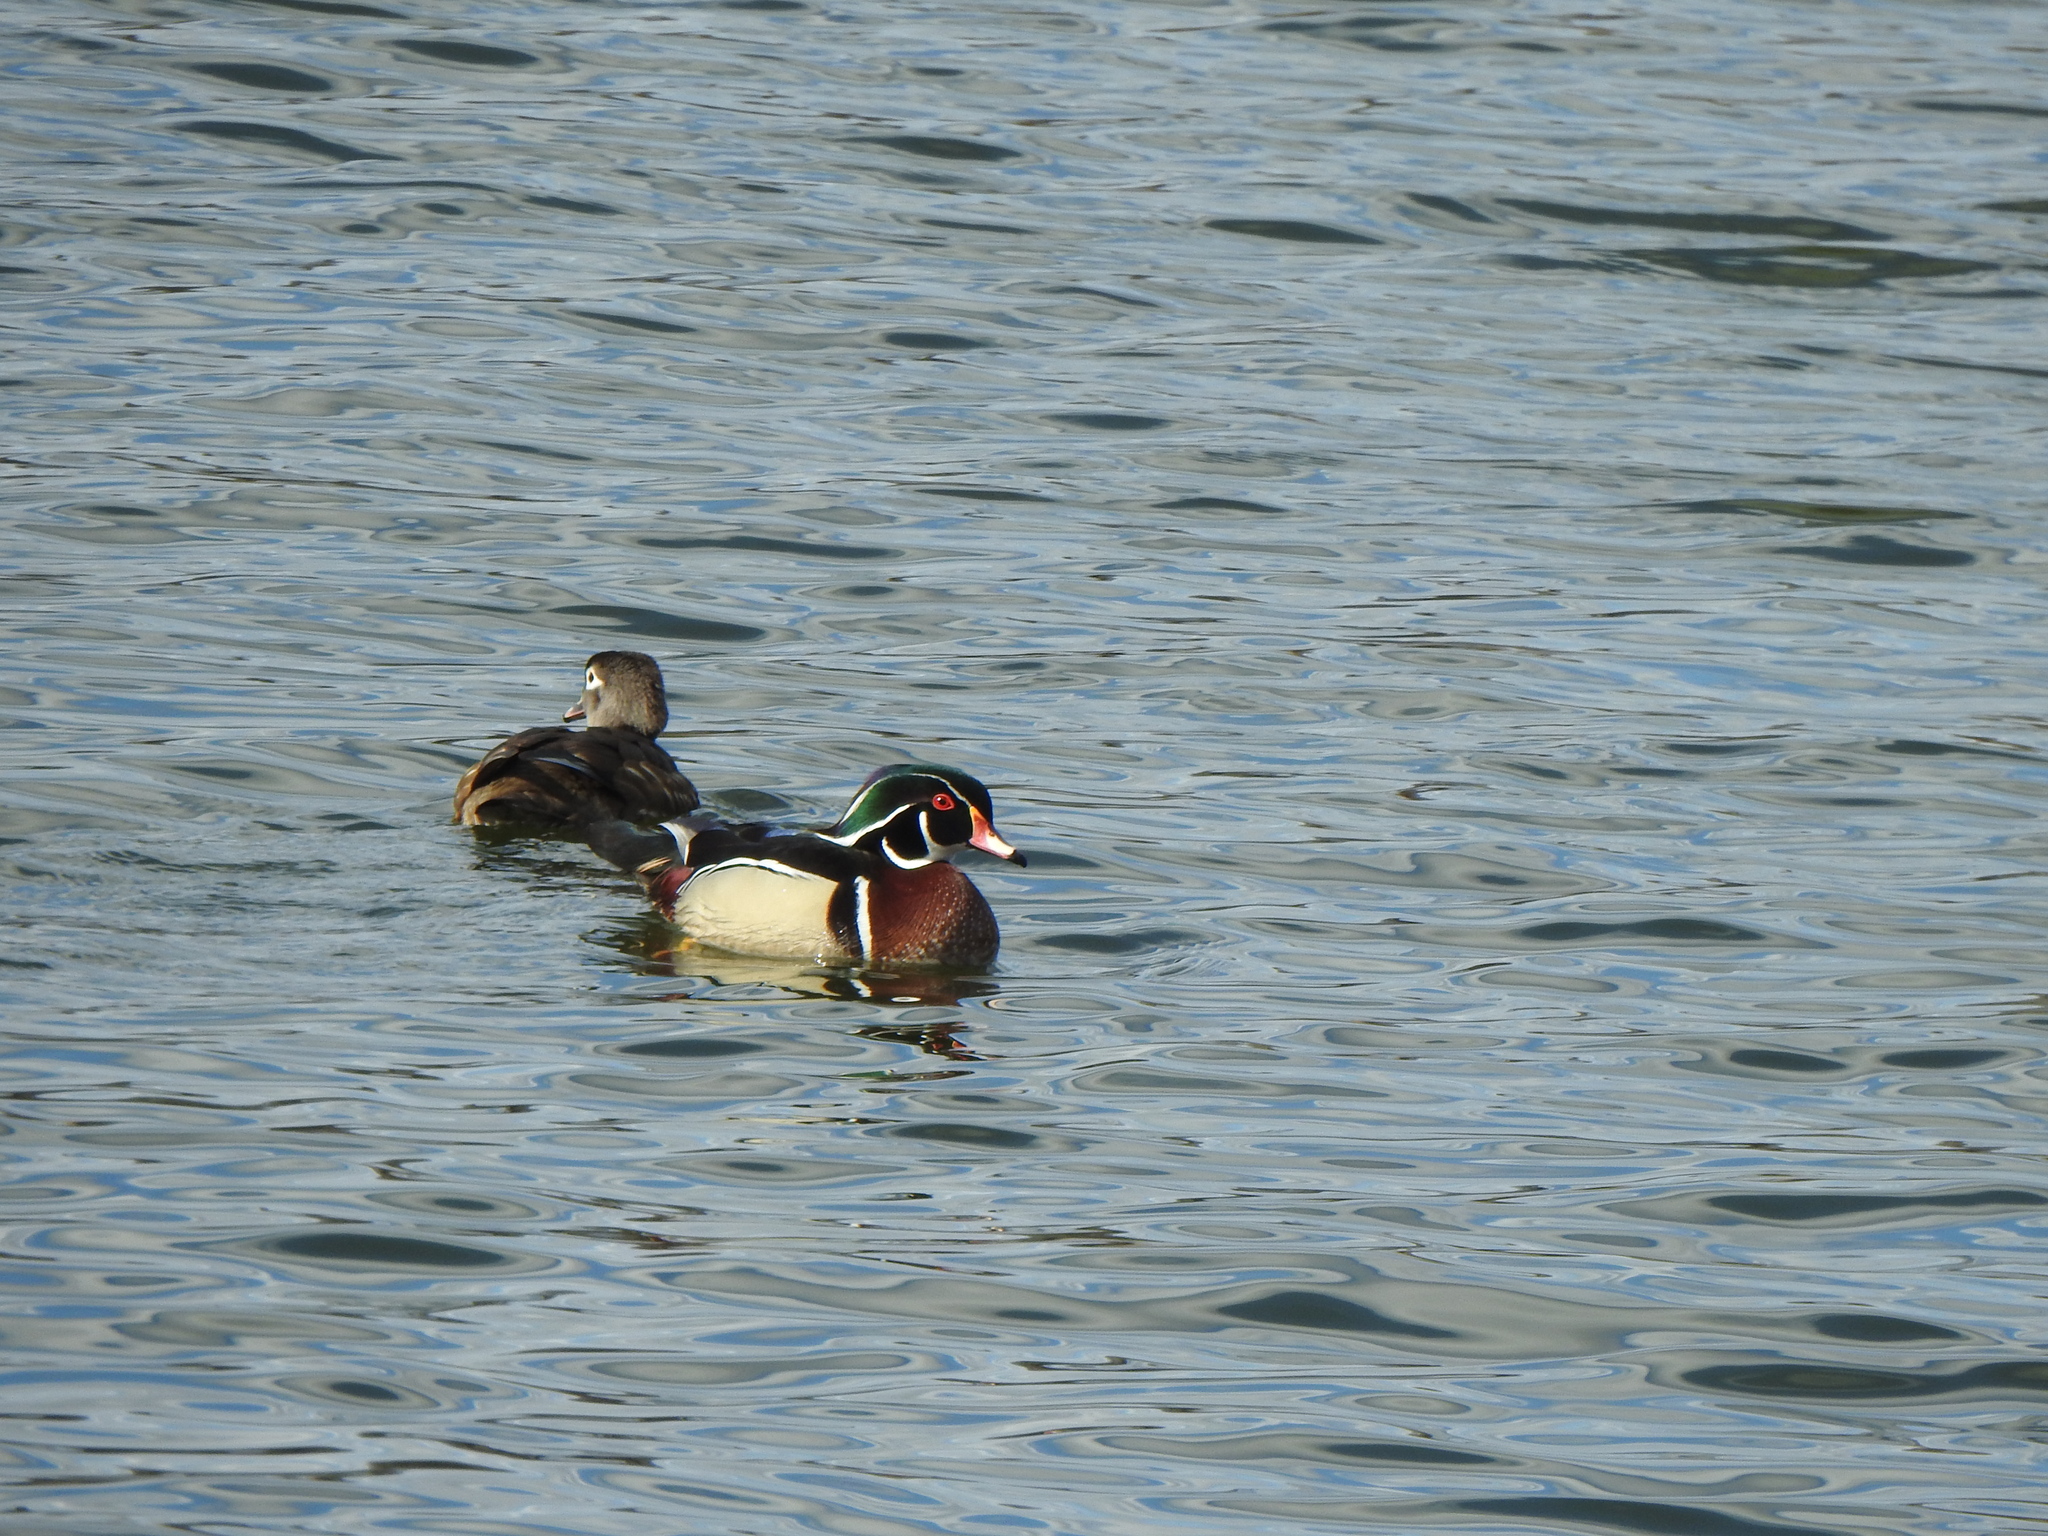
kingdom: Animalia
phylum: Chordata
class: Aves
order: Anseriformes
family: Anatidae
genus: Aix
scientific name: Aix sponsa
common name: Wood duck
